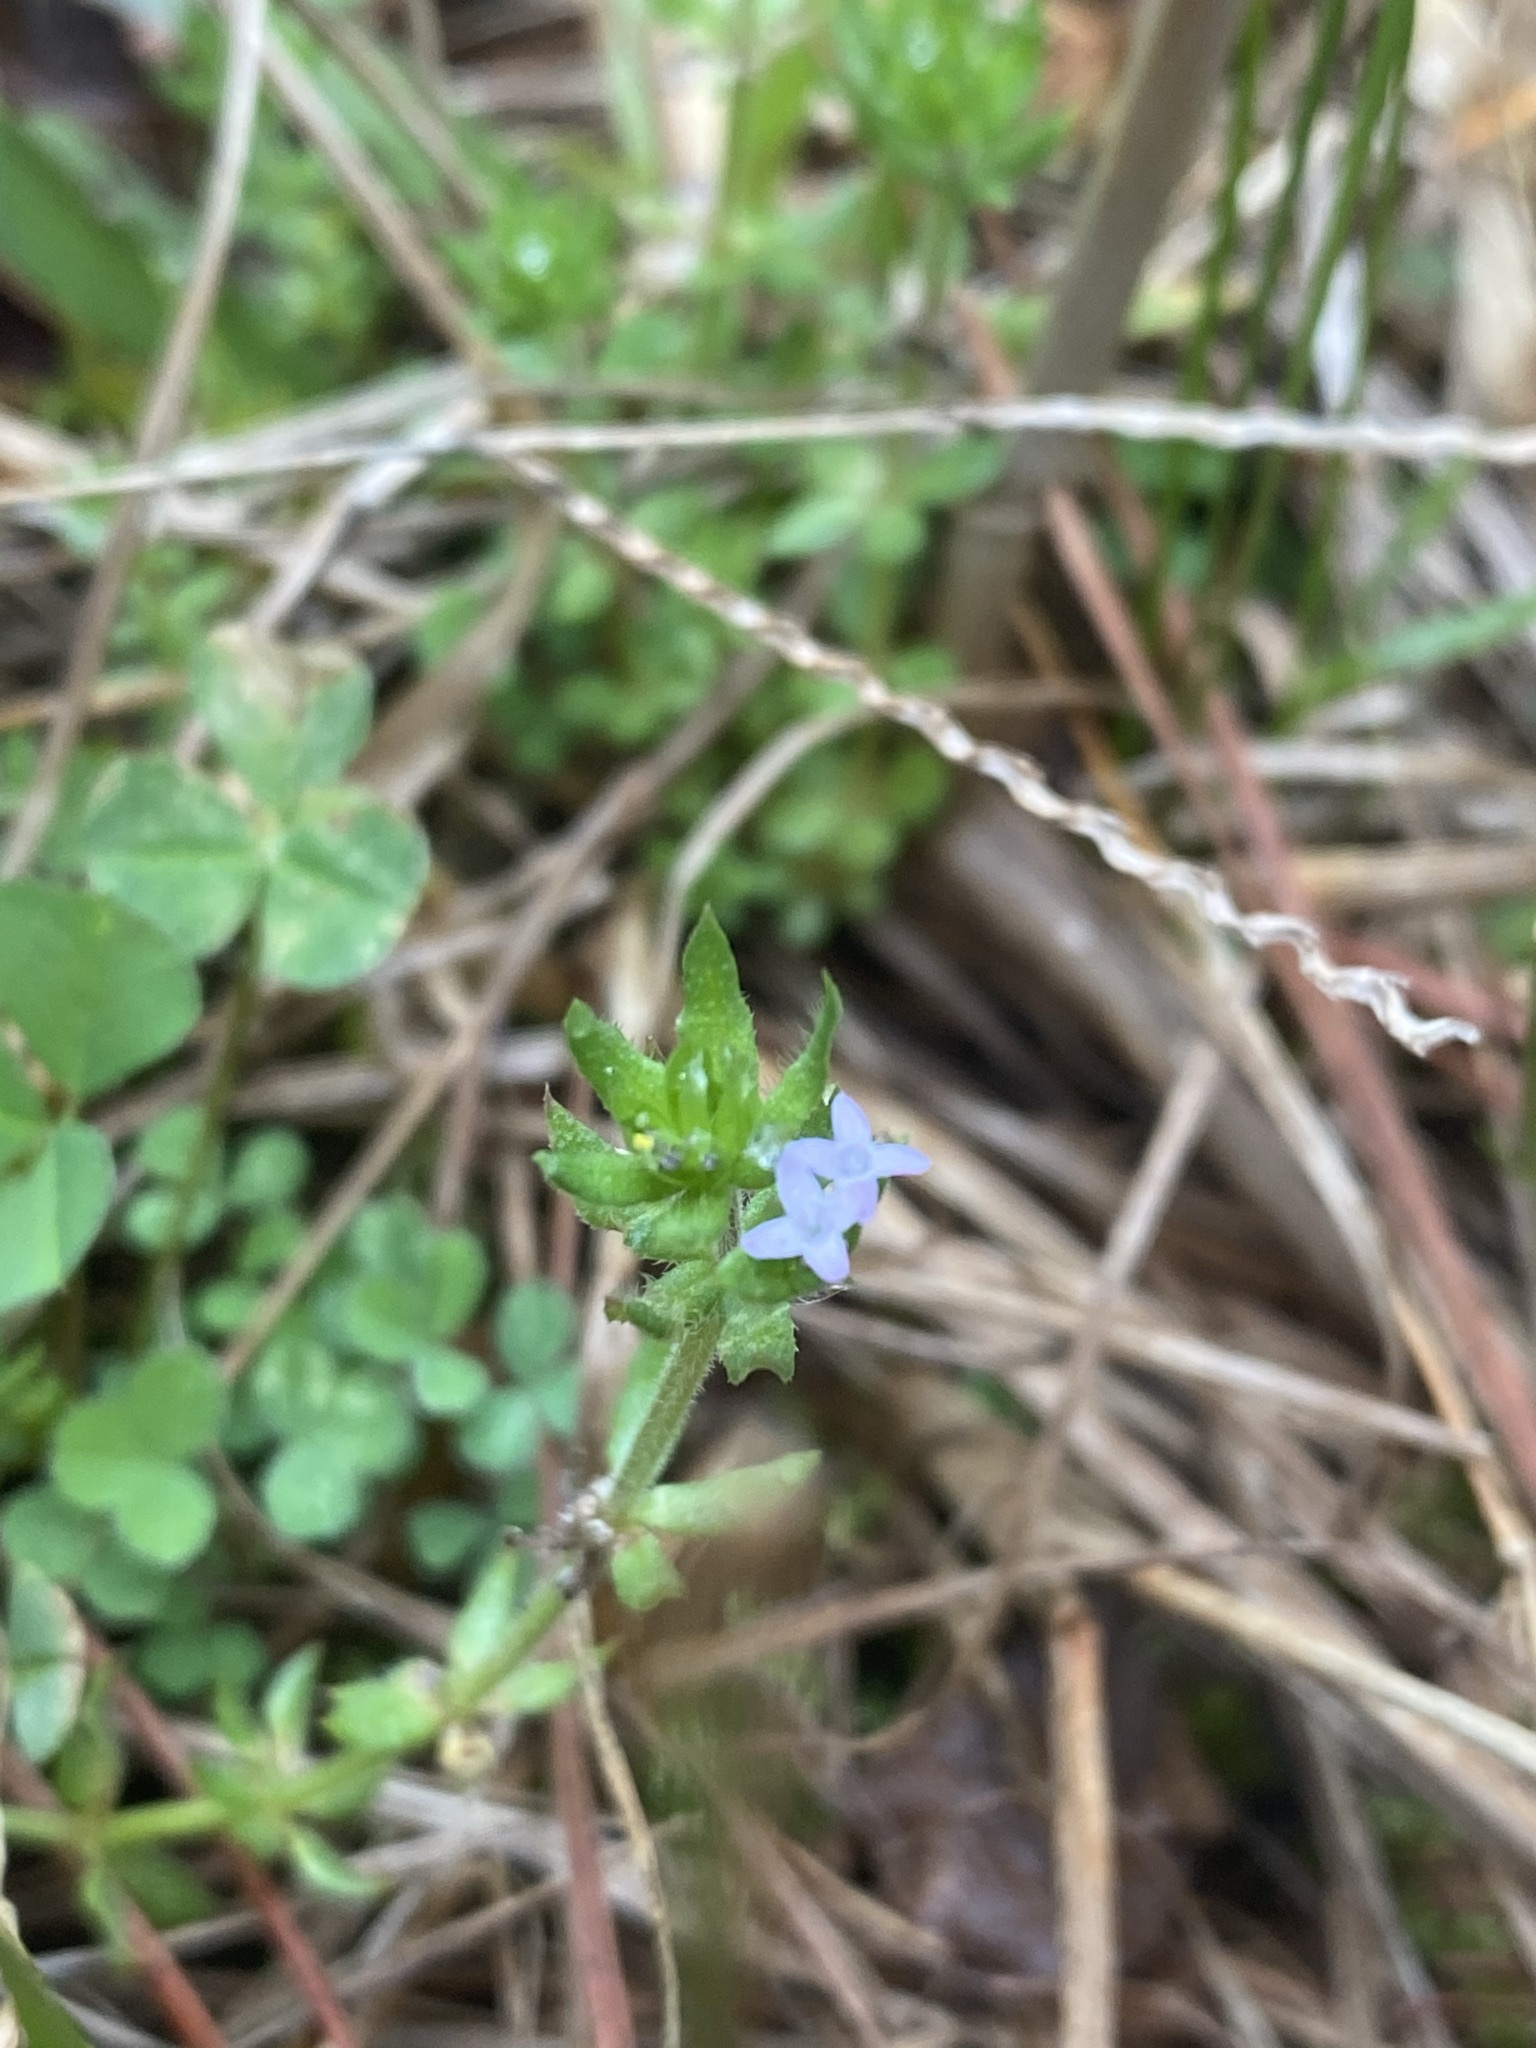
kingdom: Plantae
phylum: Tracheophyta
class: Magnoliopsida
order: Gentianales
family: Rubiaceae
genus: Sherardia
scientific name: Sherardia arvensis
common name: Field madder
